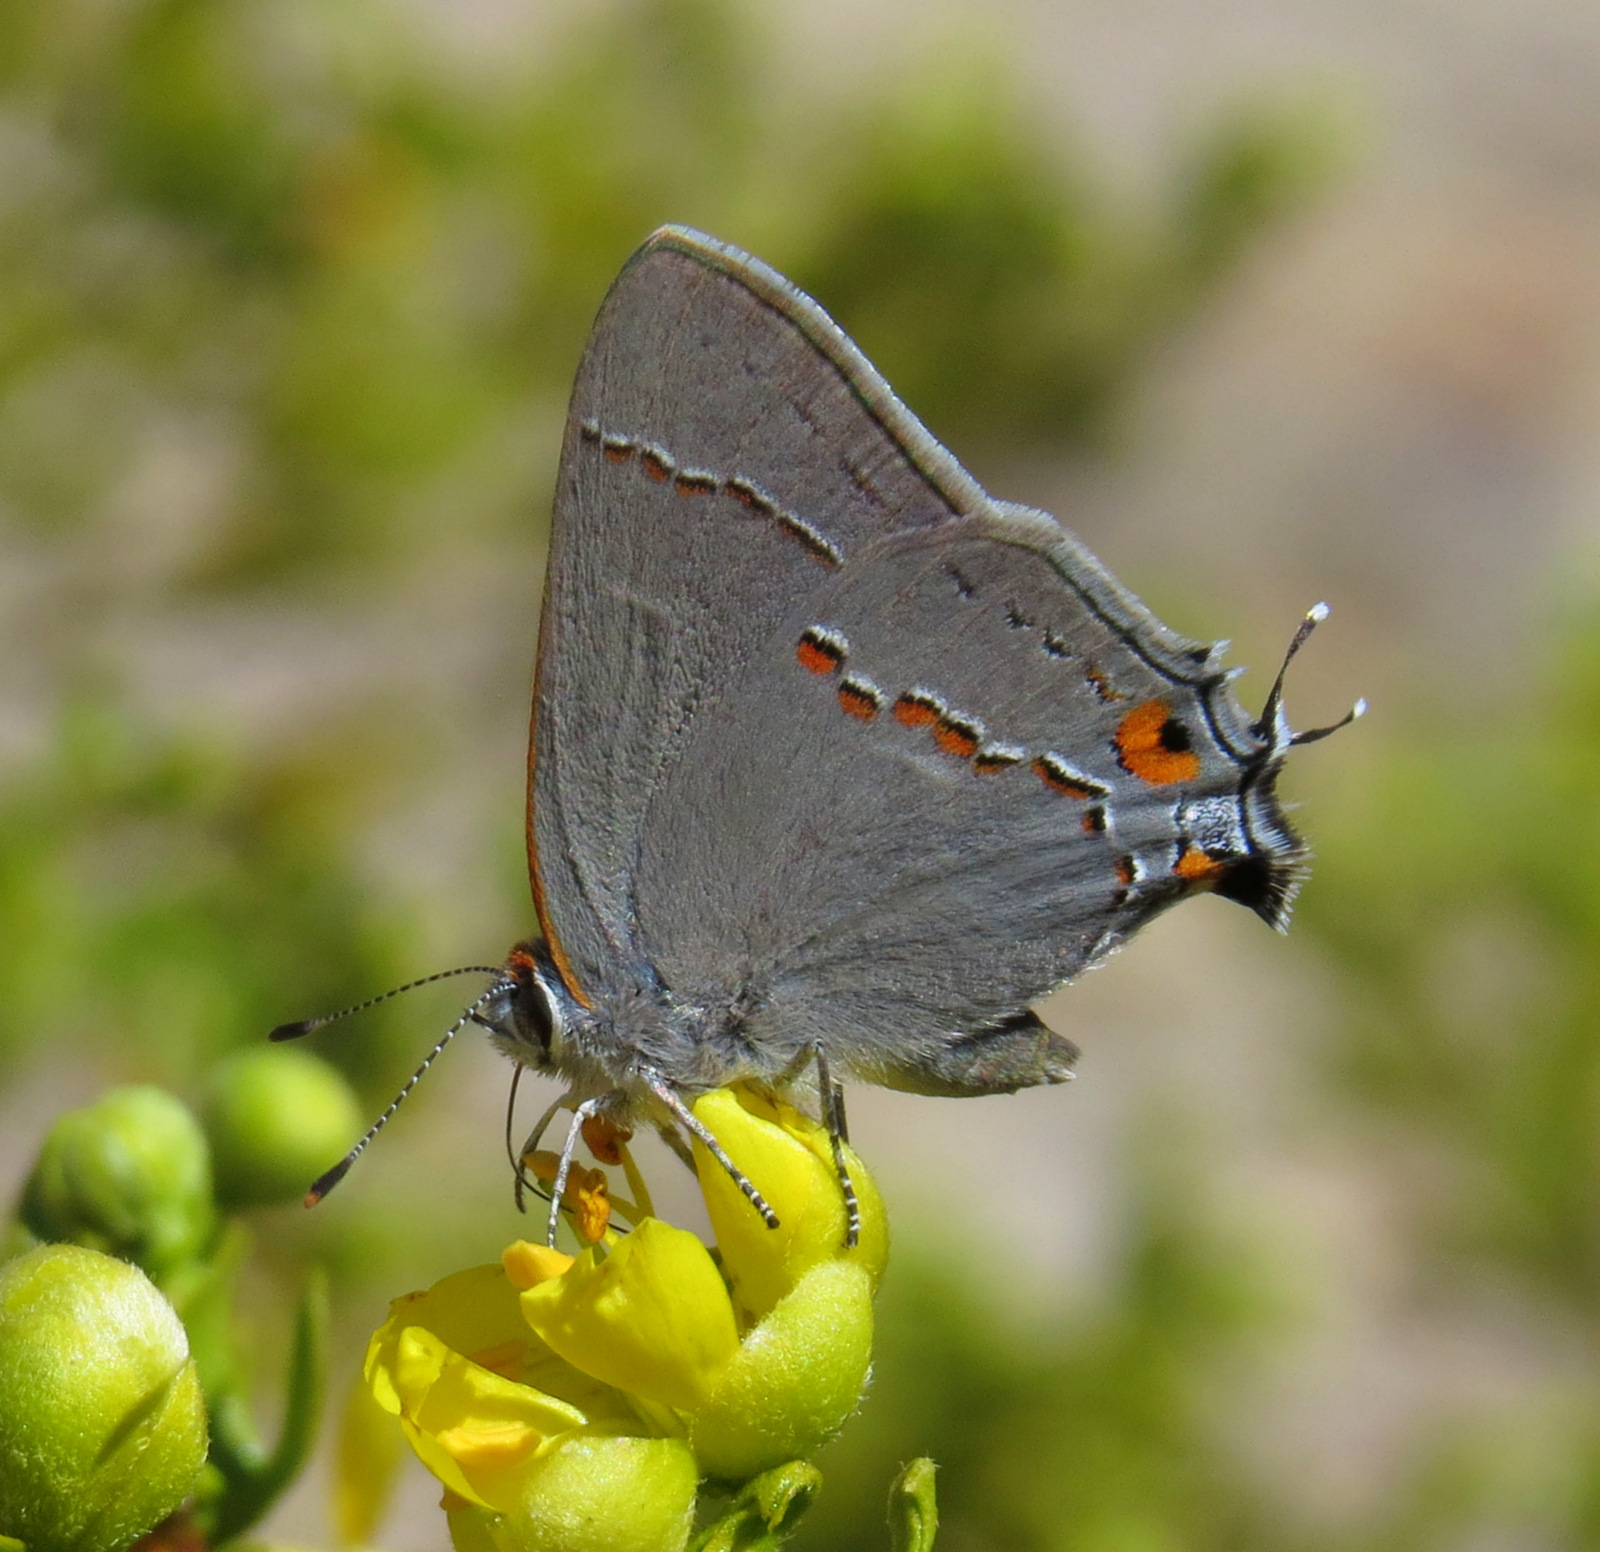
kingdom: Animalia
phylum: Arthropoda
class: Insecta
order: Lepidoptera
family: Lycaenidae
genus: Strymon
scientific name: Strymon melinus
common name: Gray hairstreak
